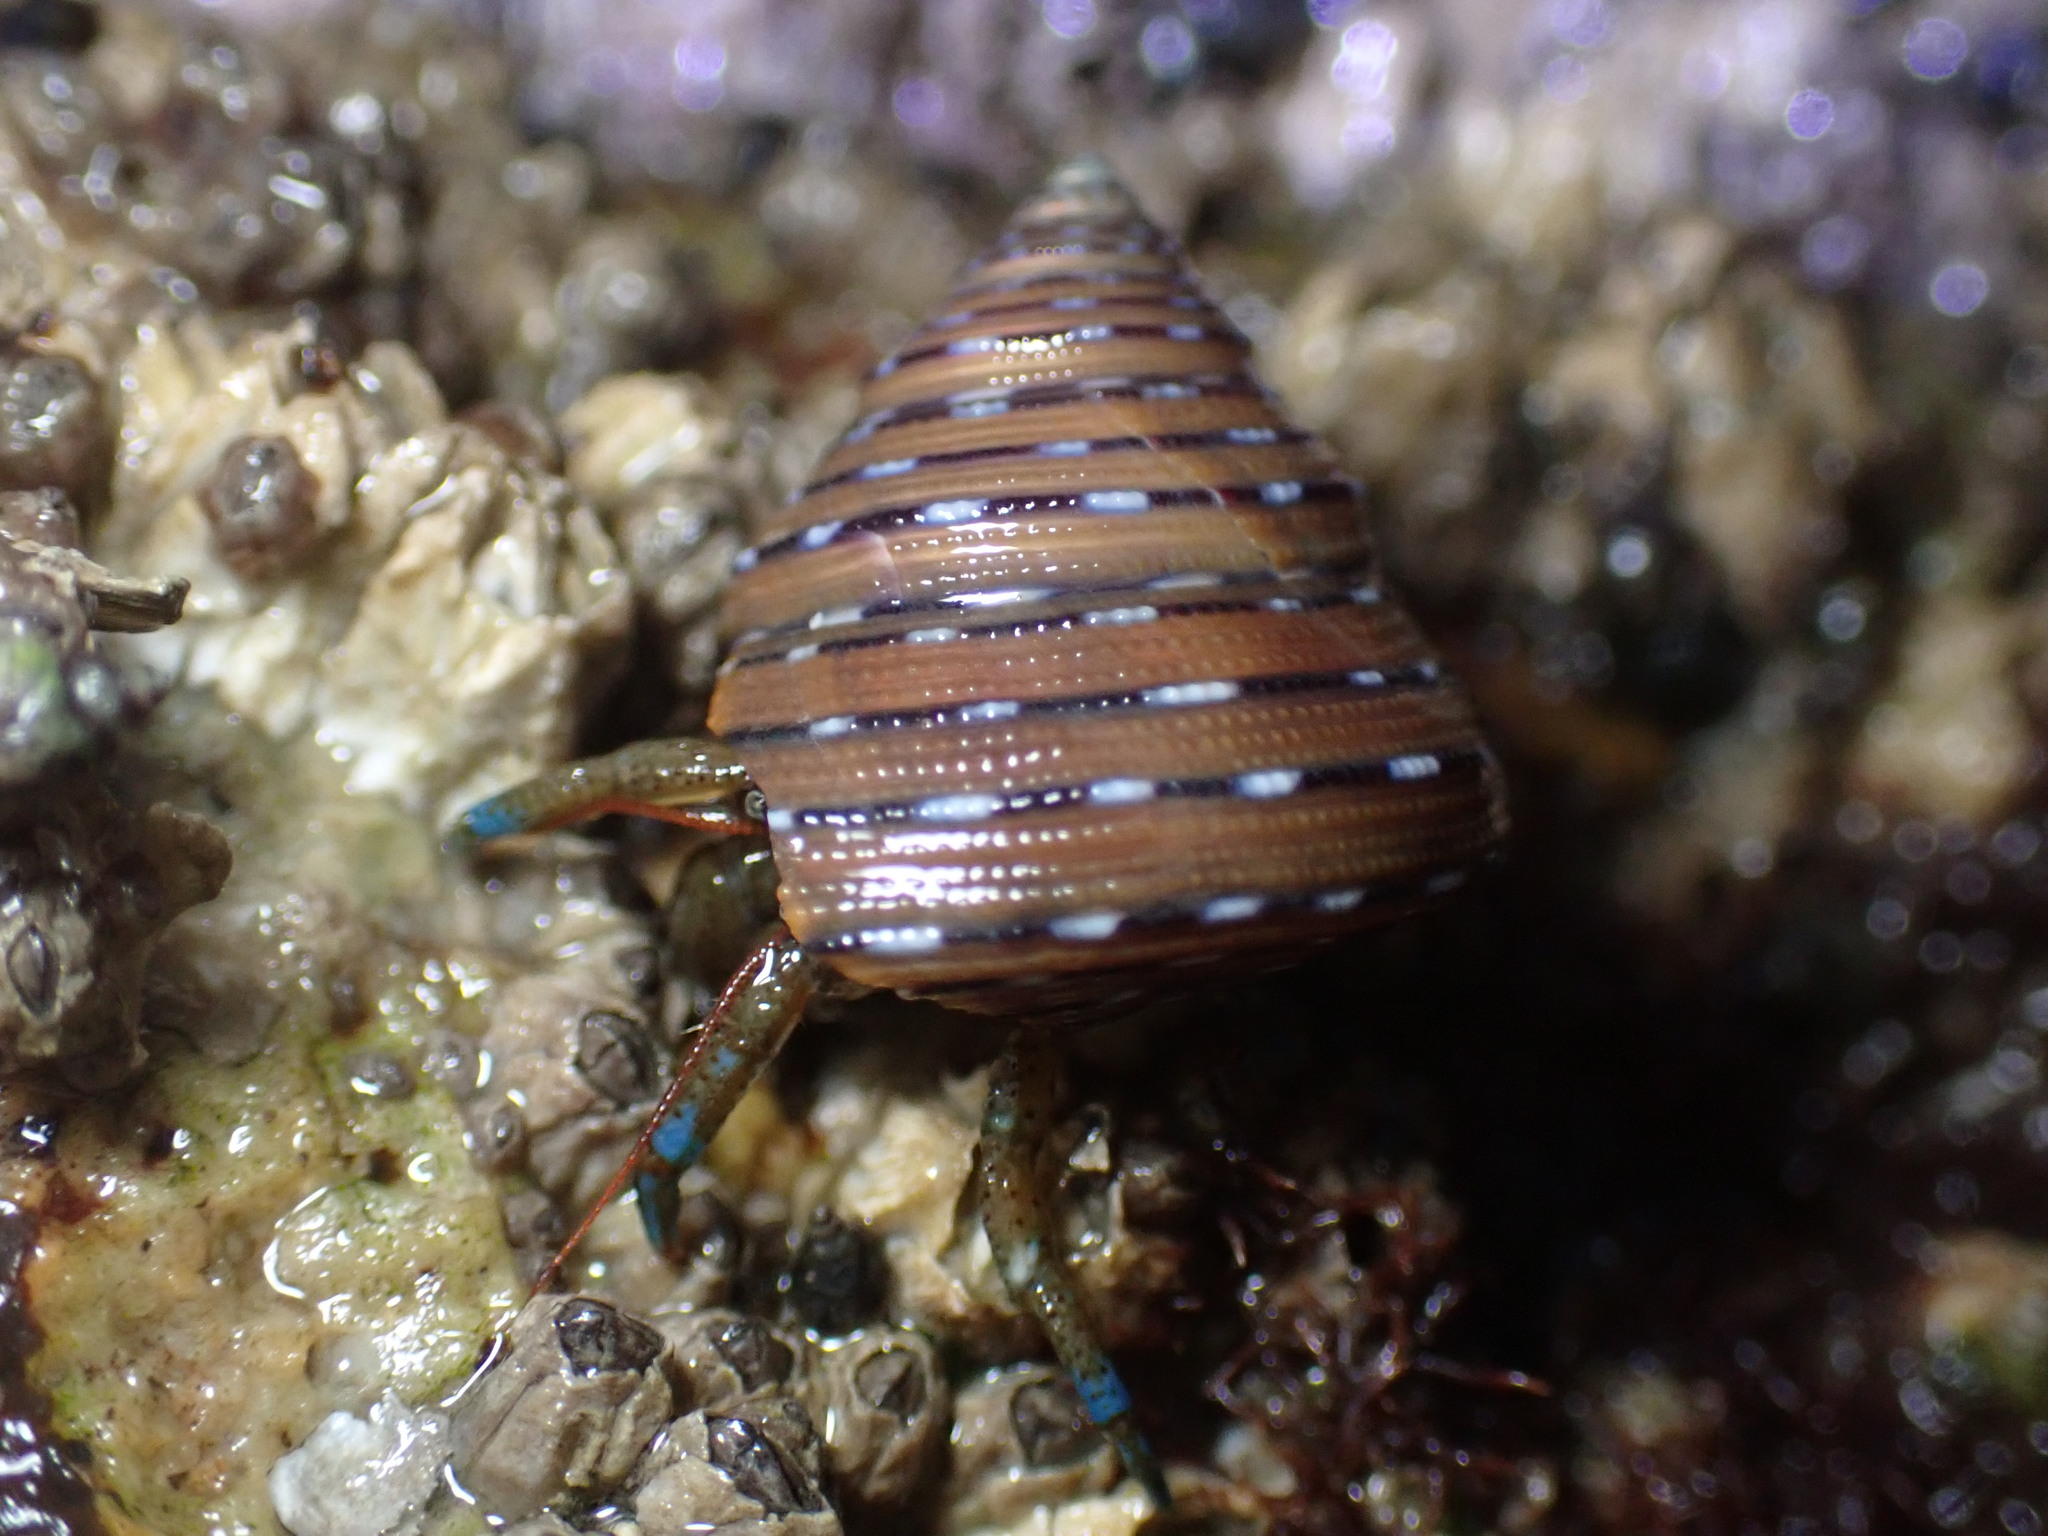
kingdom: Animalia
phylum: Arthropoda
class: Malacostraca
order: Decapoda
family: Paguridae
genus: Pagurus
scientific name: Pagurus samuelis
